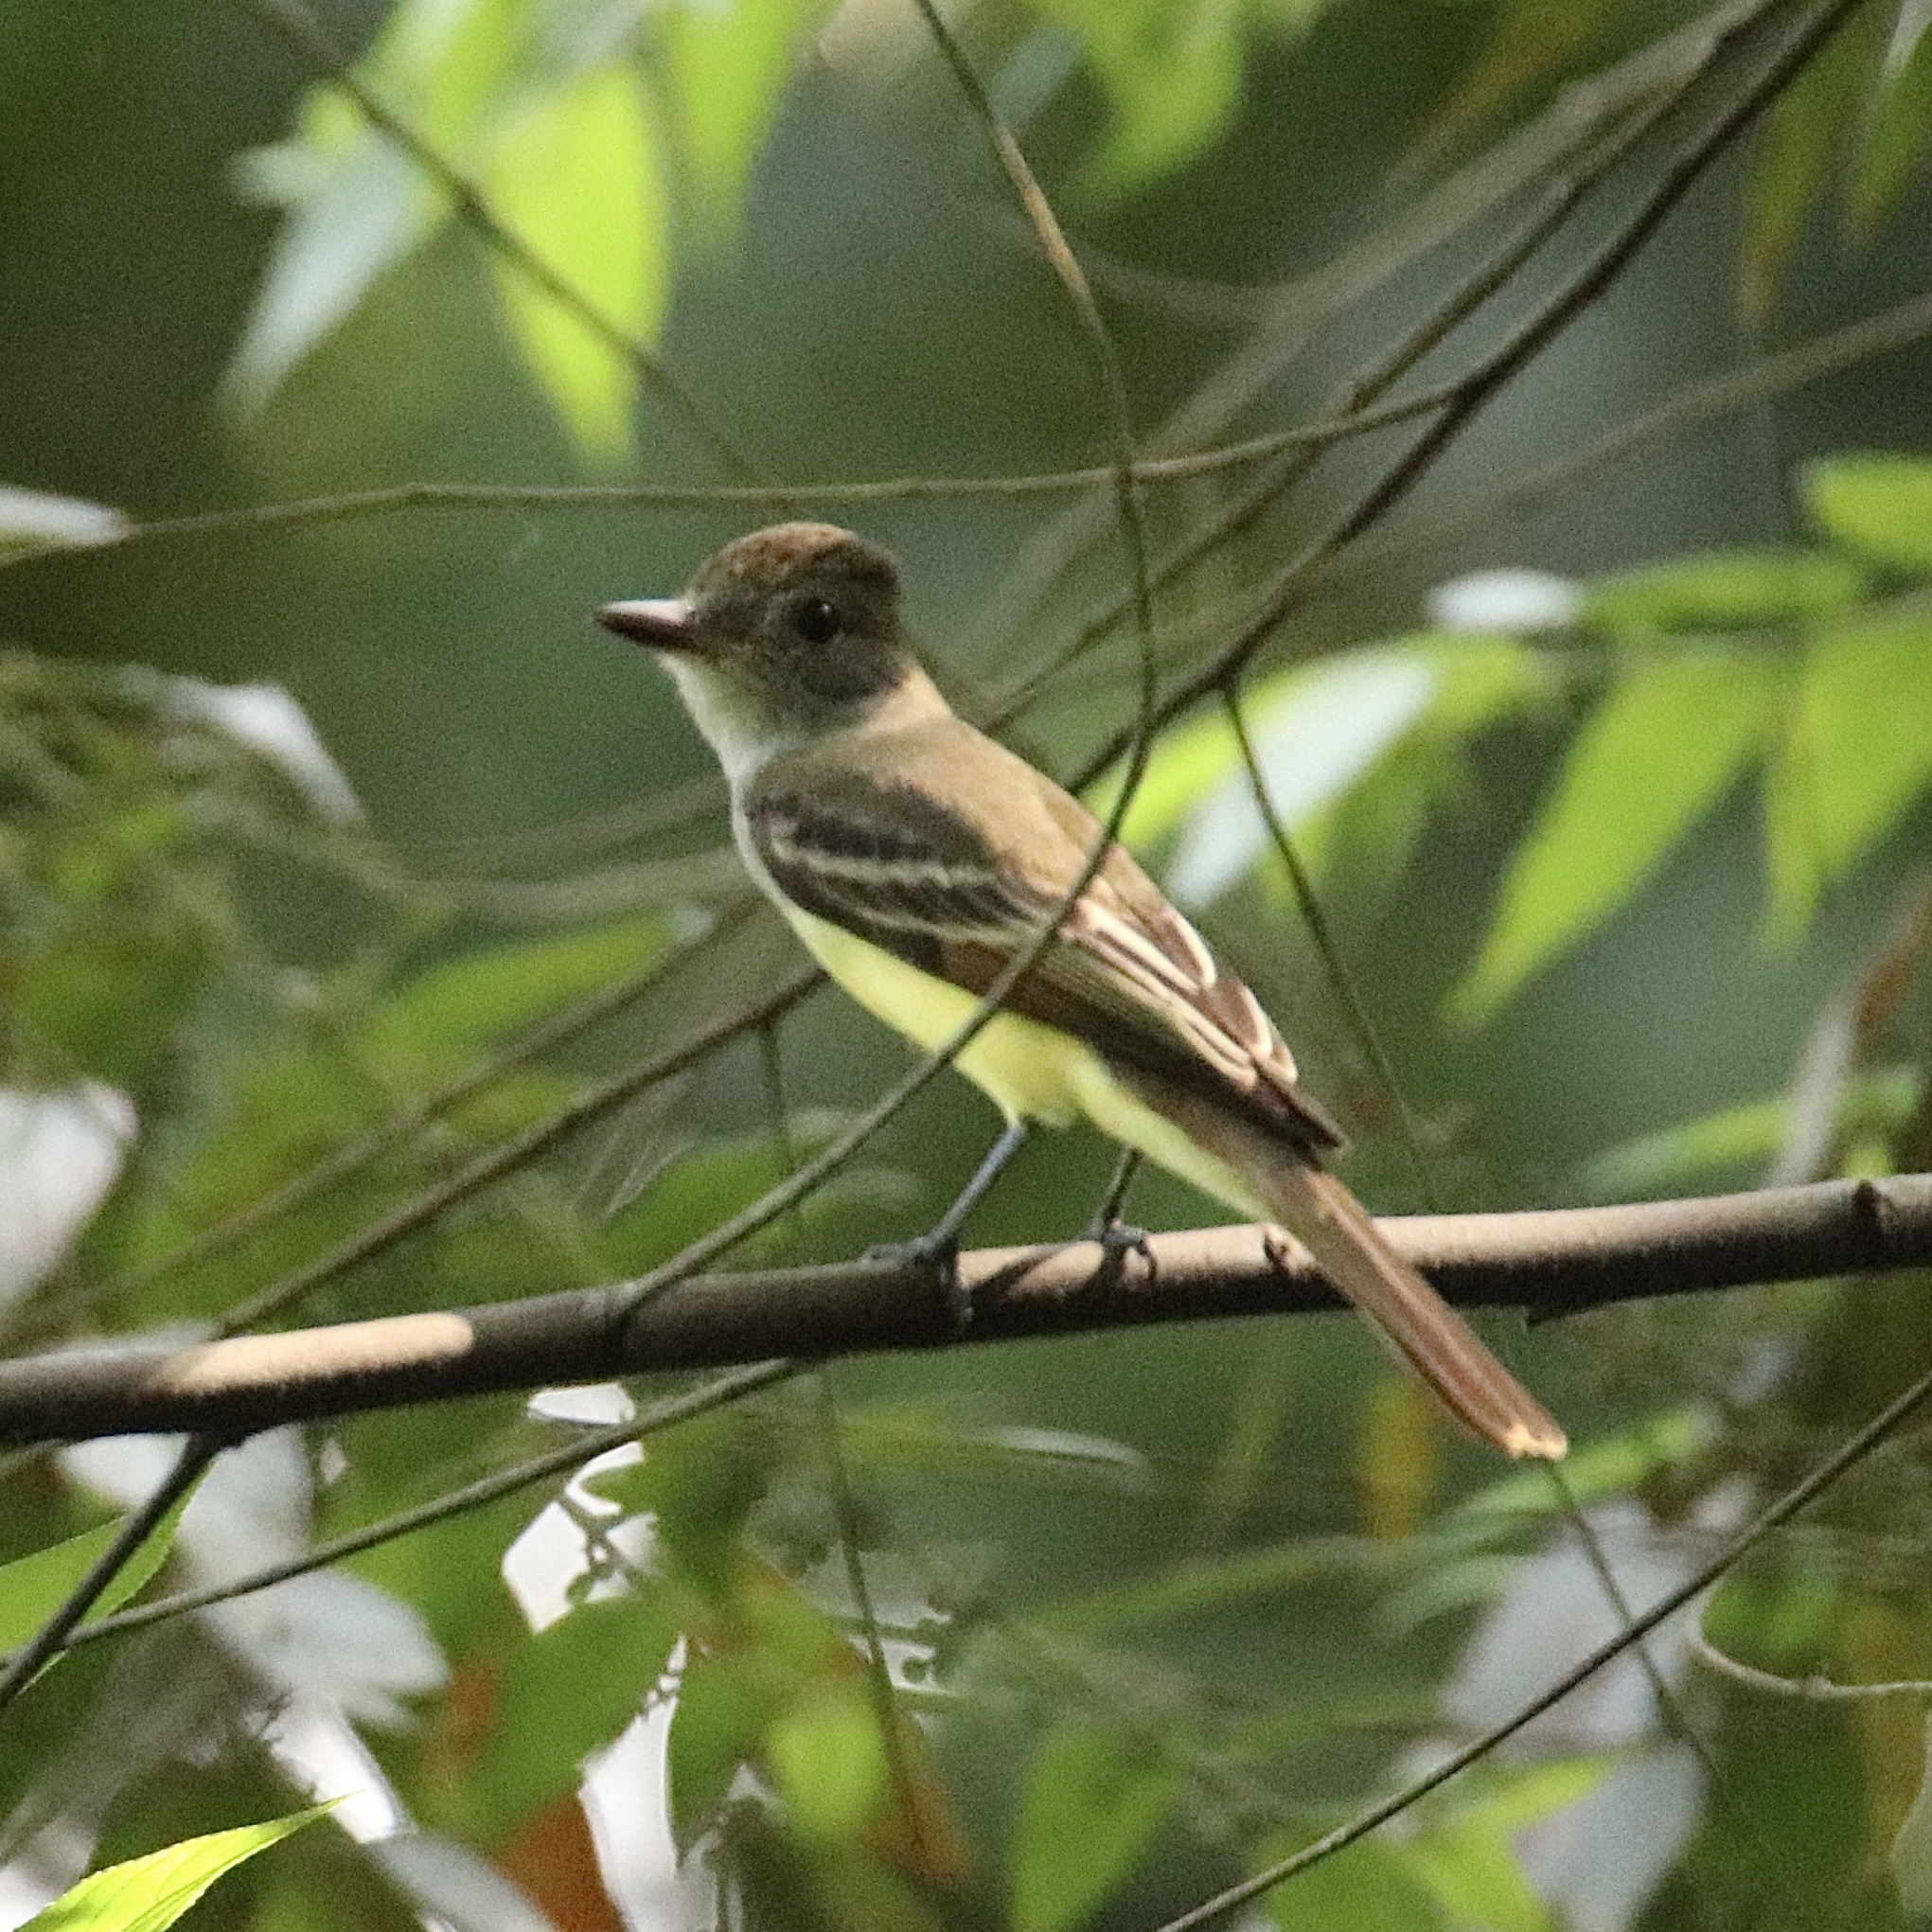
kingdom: Animalia
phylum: Chordata
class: Aves
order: Passeriformes
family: Tyrannidae
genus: Myiarchus
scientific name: Myiarchus tuberculifer
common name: Dusky-capped flycatcher
